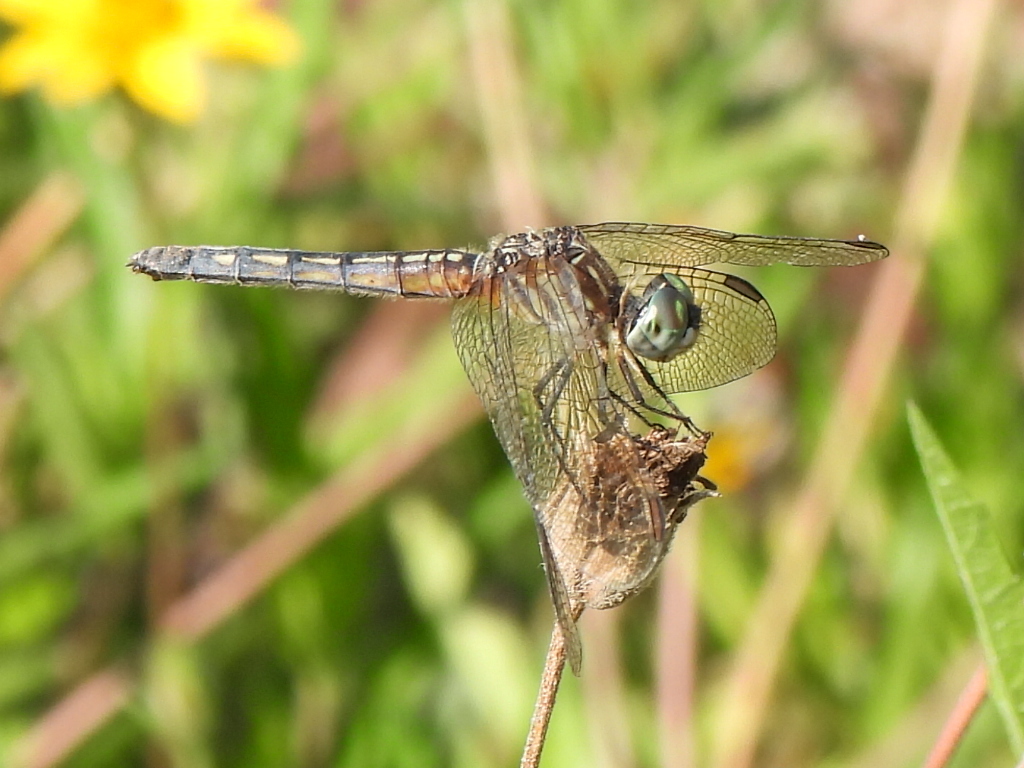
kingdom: Animalia
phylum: Arthropoda
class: Insecta
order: Odonata
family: Libellulidae
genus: Pachydiplax
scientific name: Pachydiplax longipennis
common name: Blue dasher
